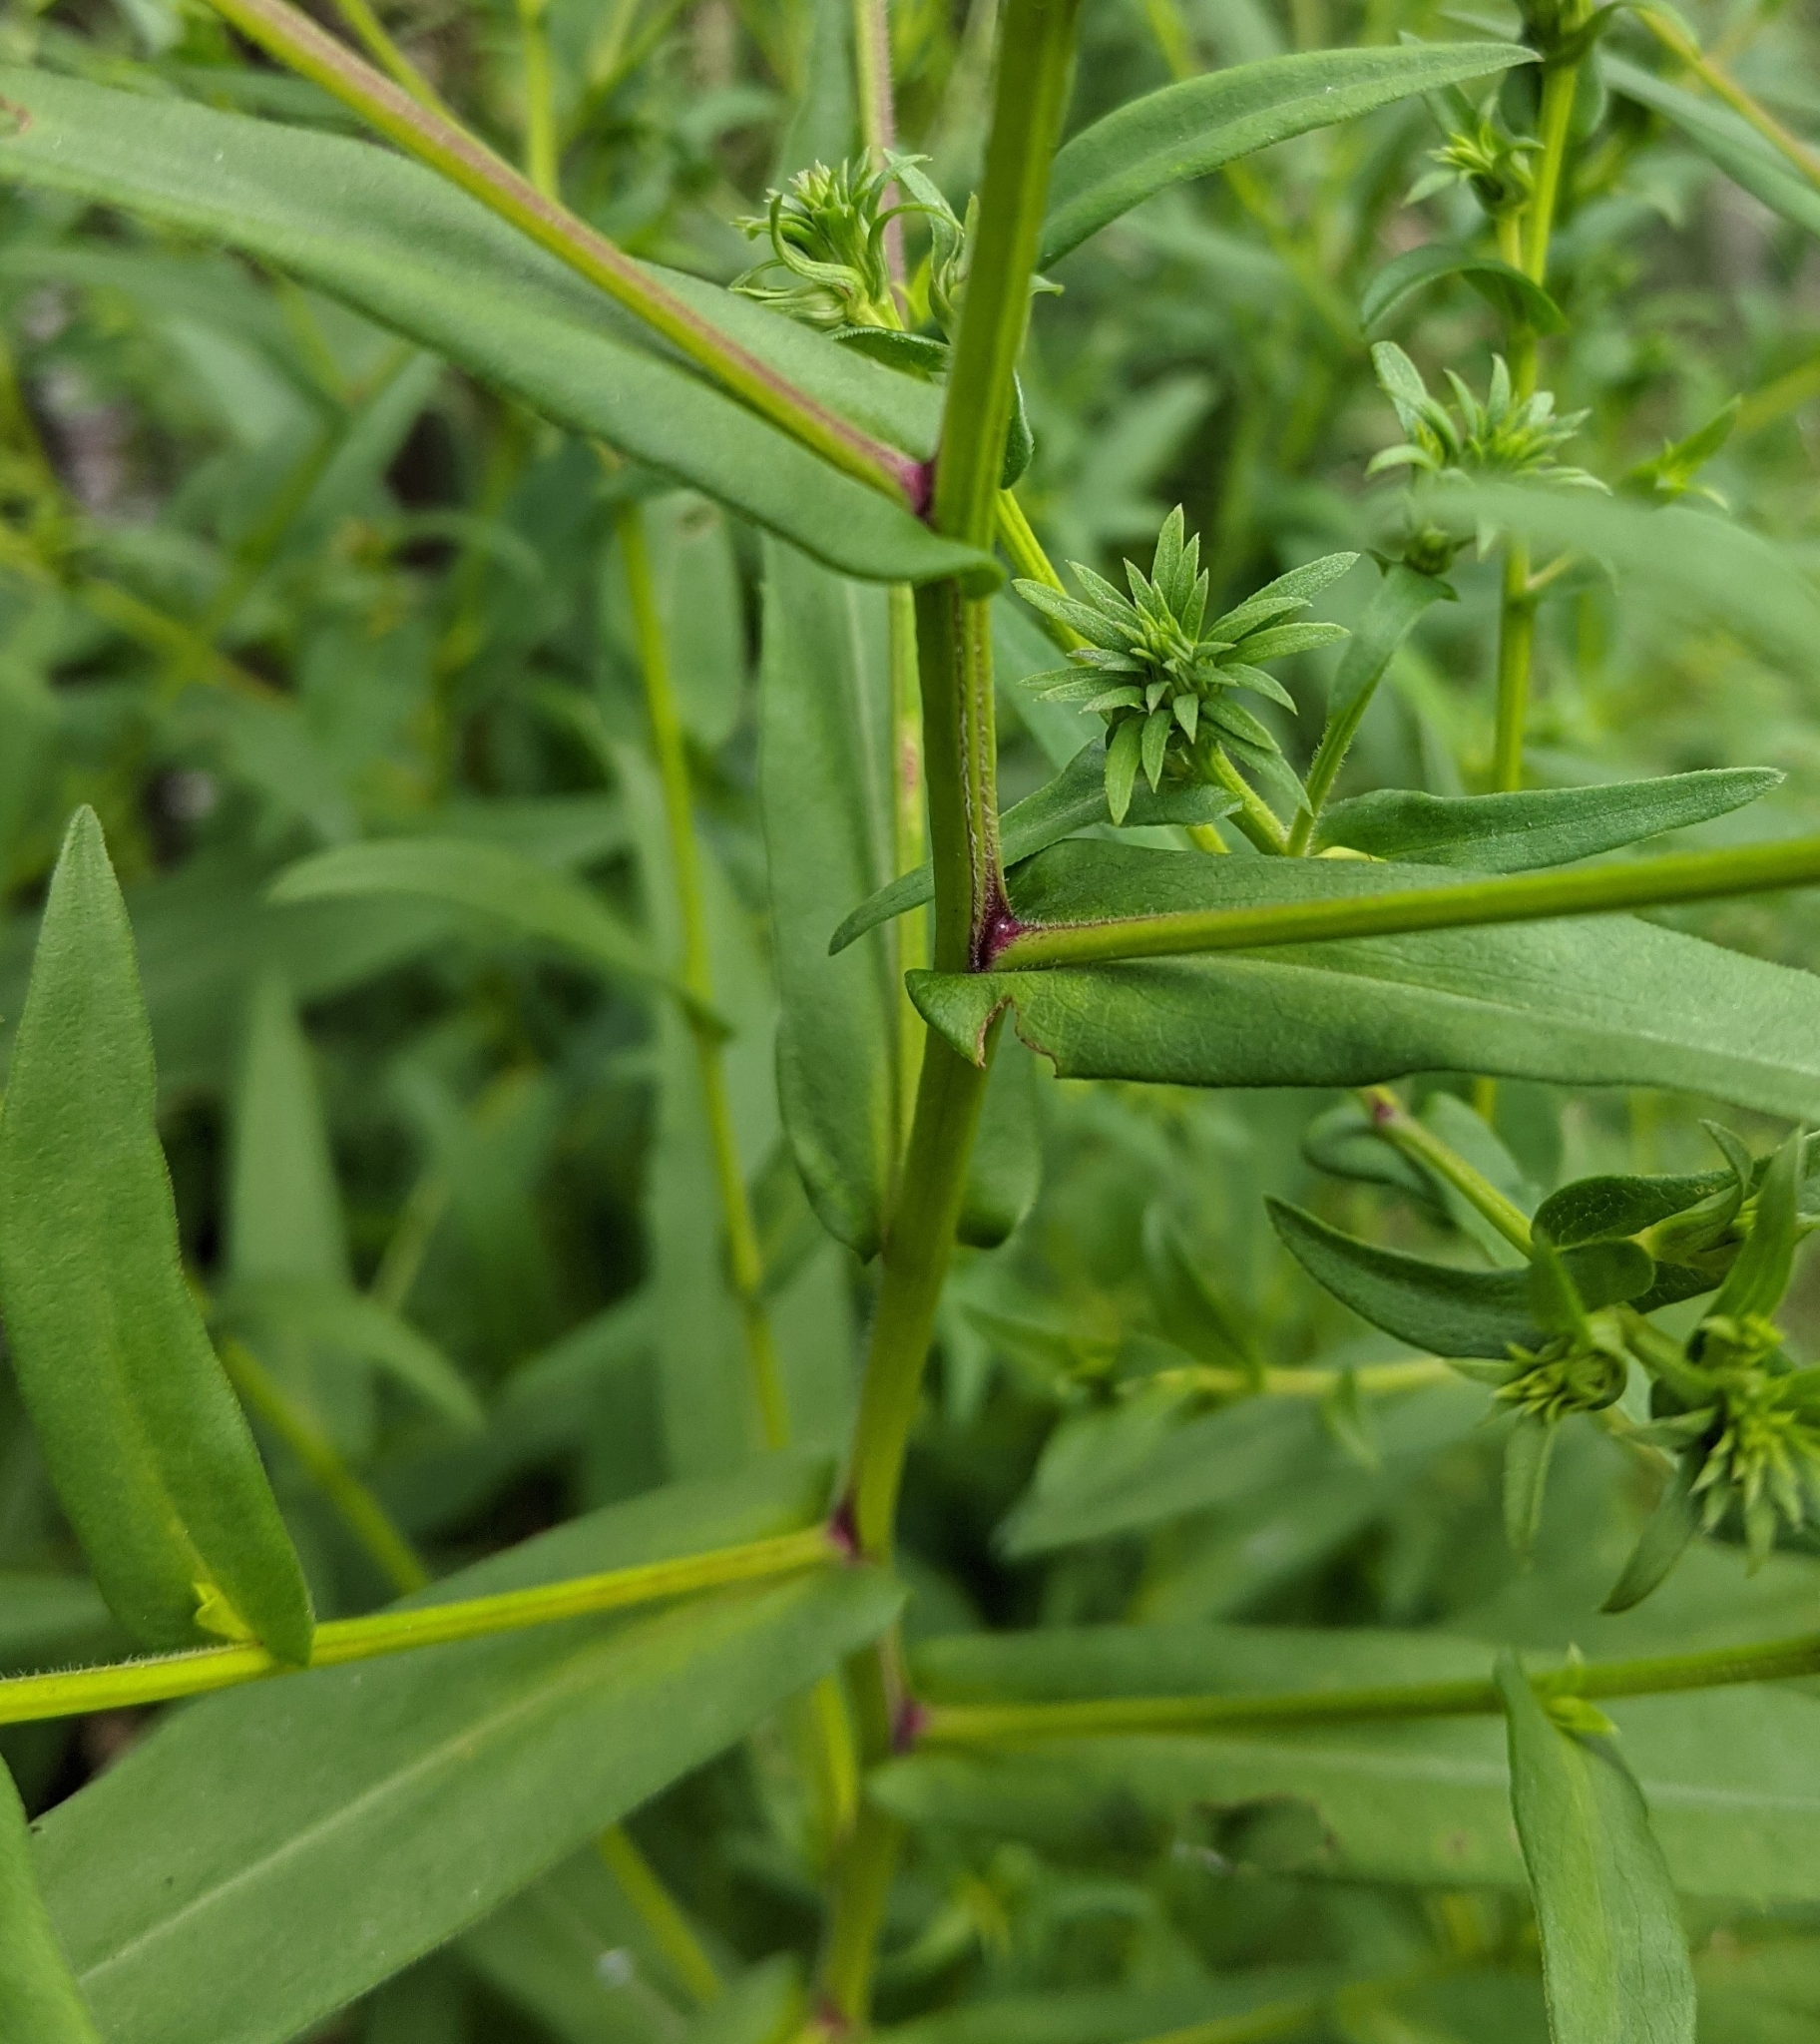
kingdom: Plantae
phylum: Tracheophyta
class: Magnoliopsida
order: Asterales
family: Asteraceae
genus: Symphyotrichum
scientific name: Symphyotrichum novi-belgii
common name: Michaelmas daisy
